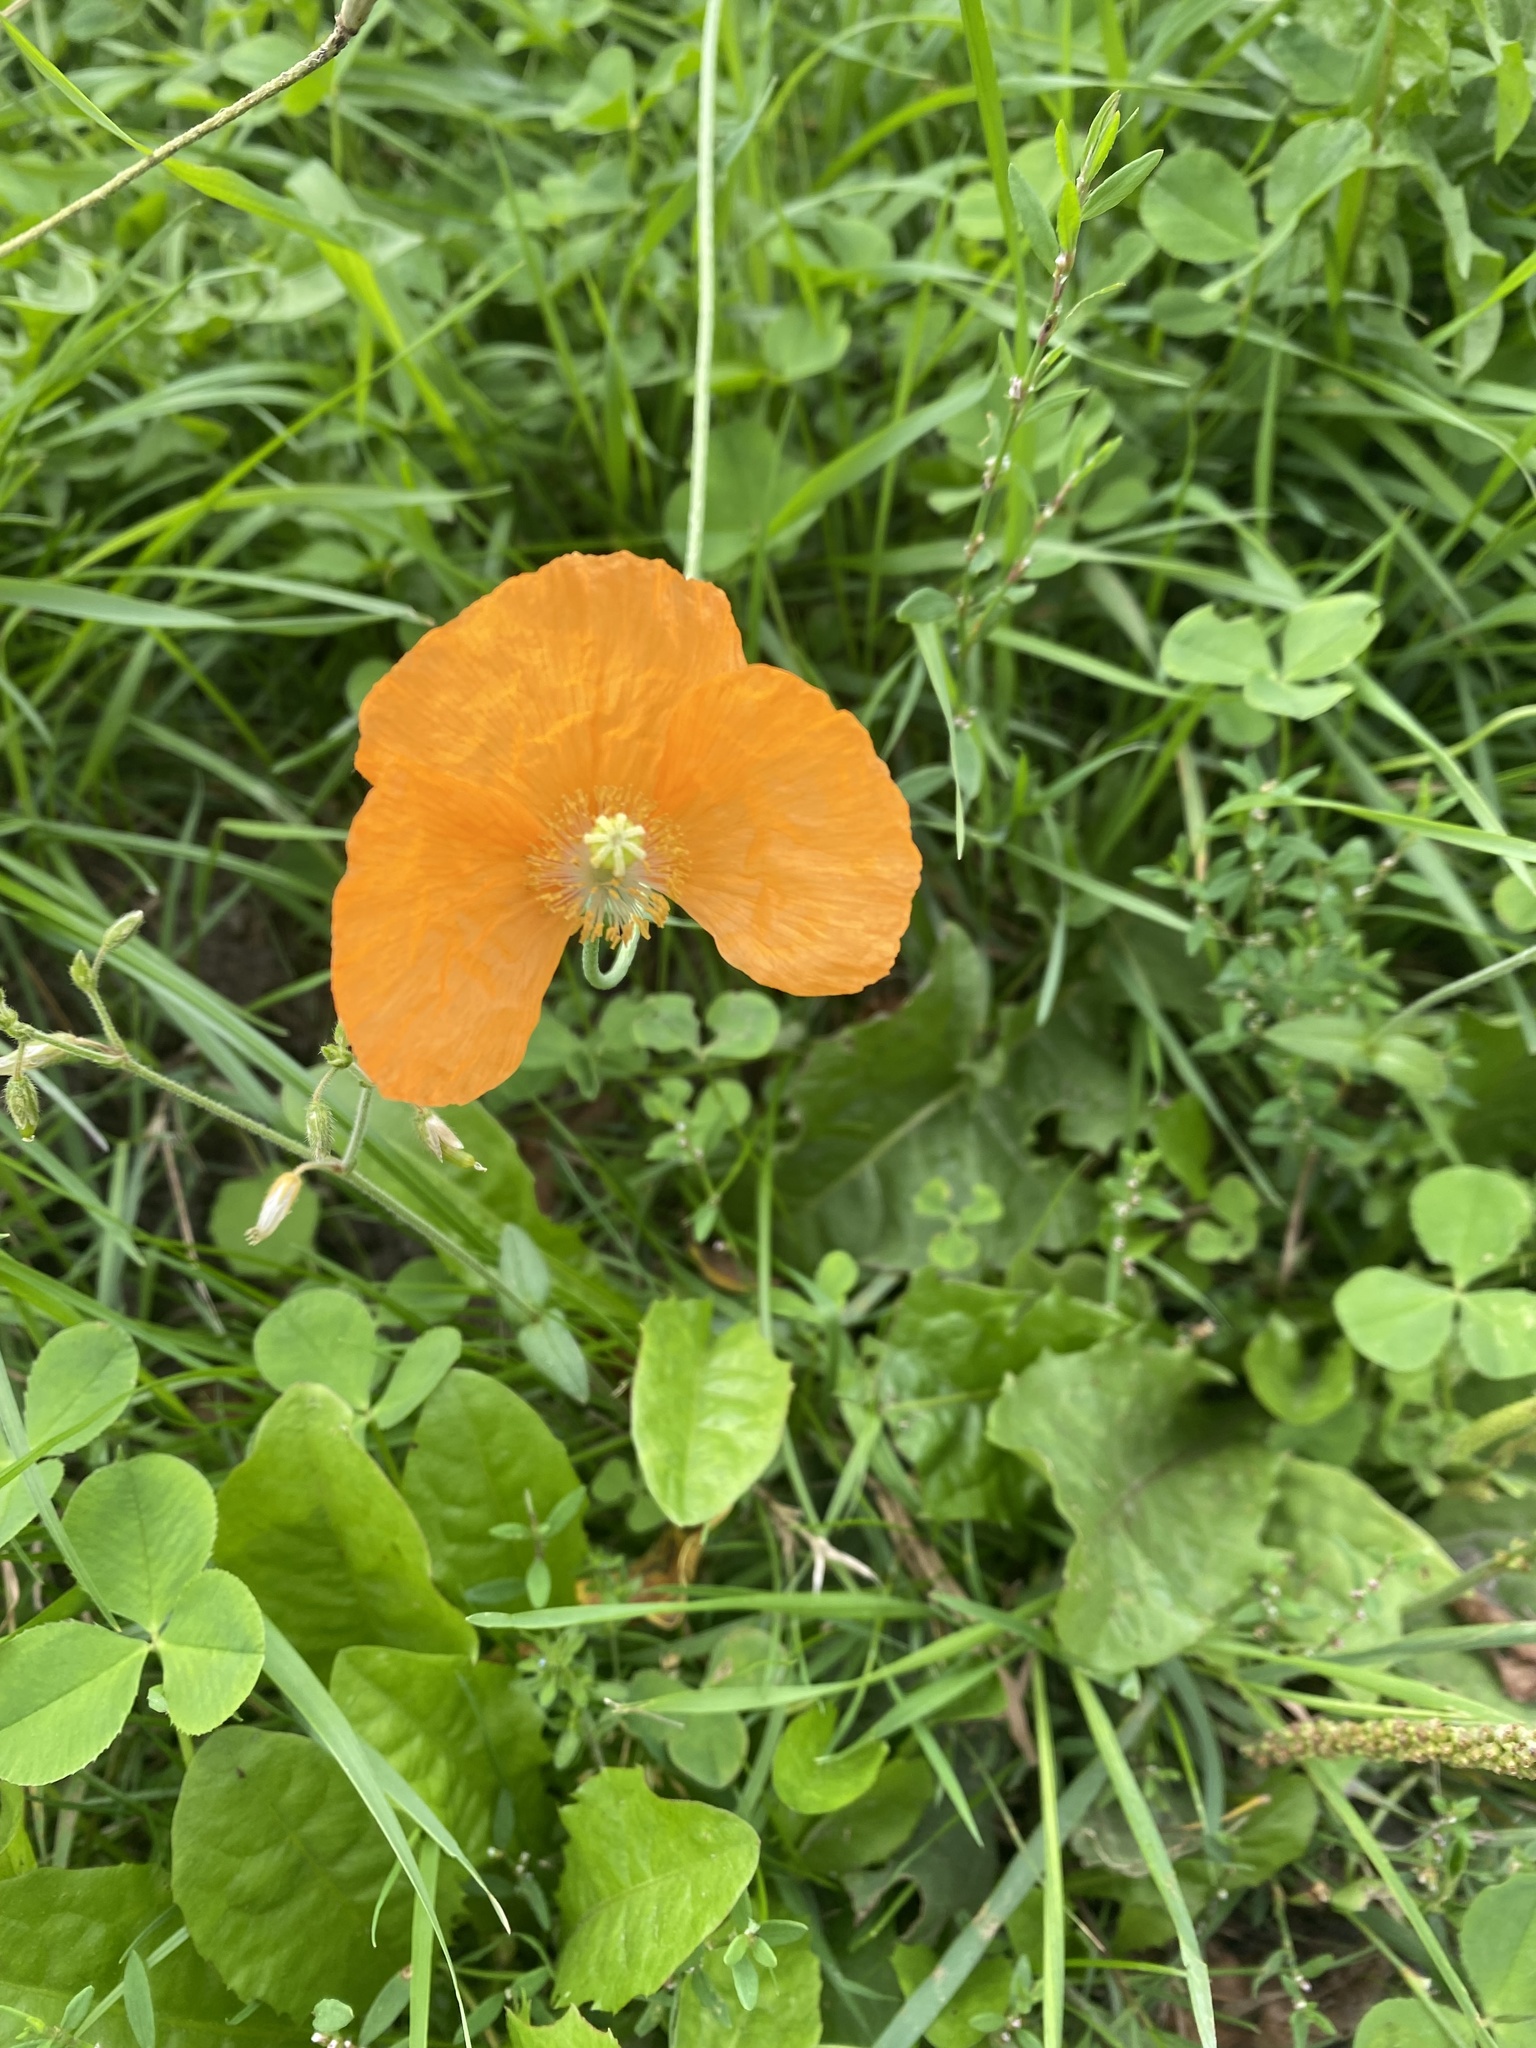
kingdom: Plantae
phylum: Tracheophyta
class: Magnoliopsida
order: Ranunculales
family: Papaveraceae
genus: Papaver
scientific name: Papaver cambricum
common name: Poppy
